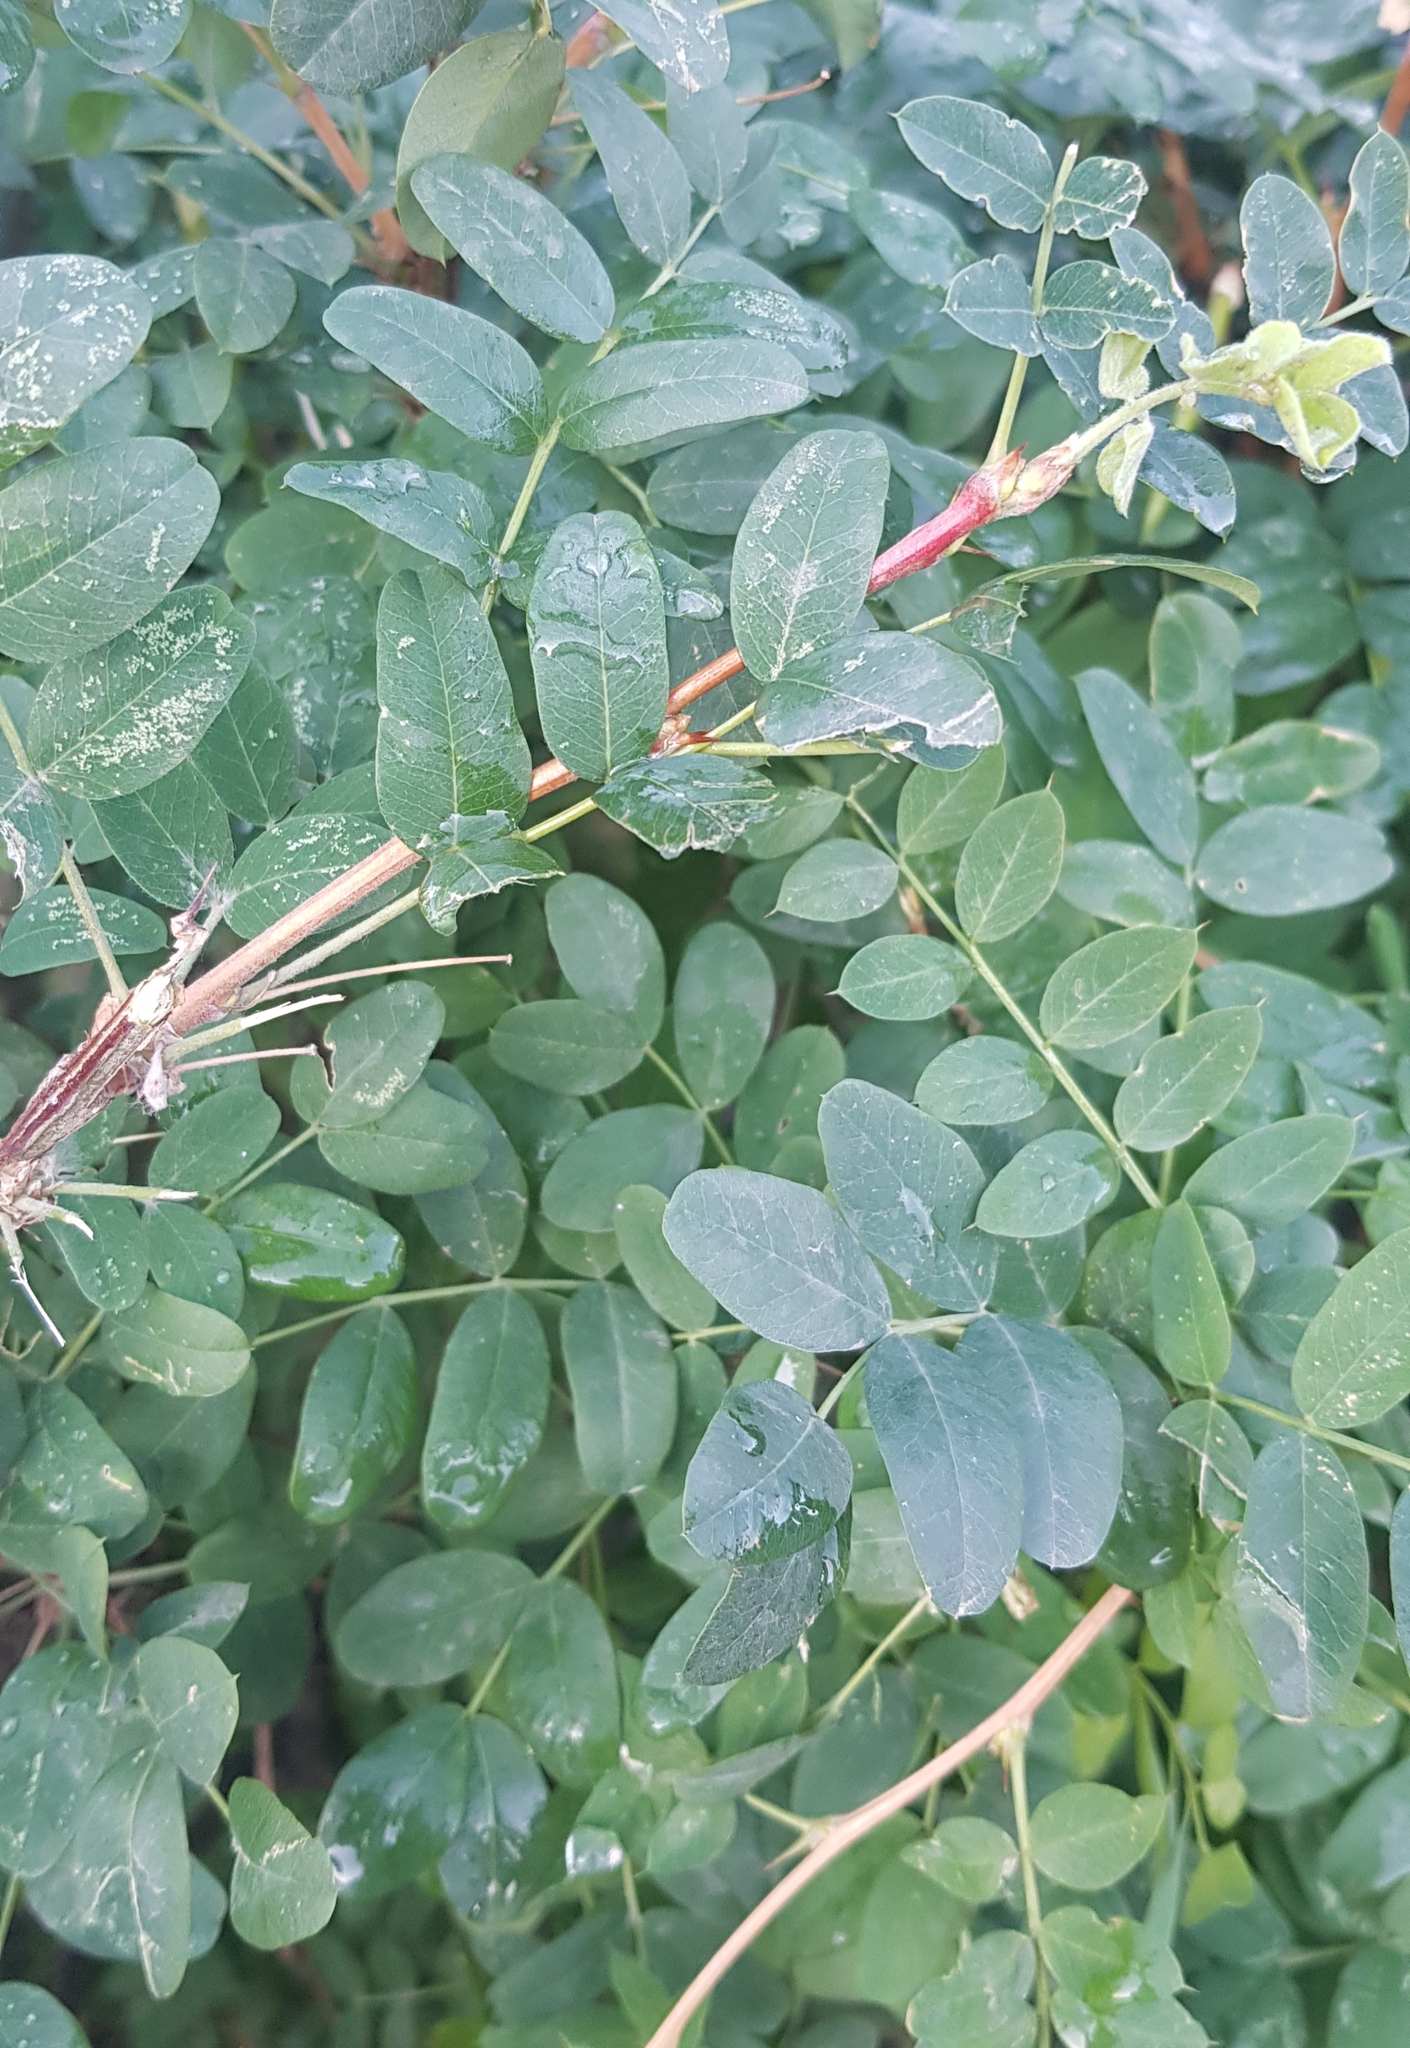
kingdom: Plantae
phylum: Tracheophyta
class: Magnoliopsida
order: Fabales
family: Fabaceae
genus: Caragana
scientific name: Caragana arborescens
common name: Siberian peashrub
